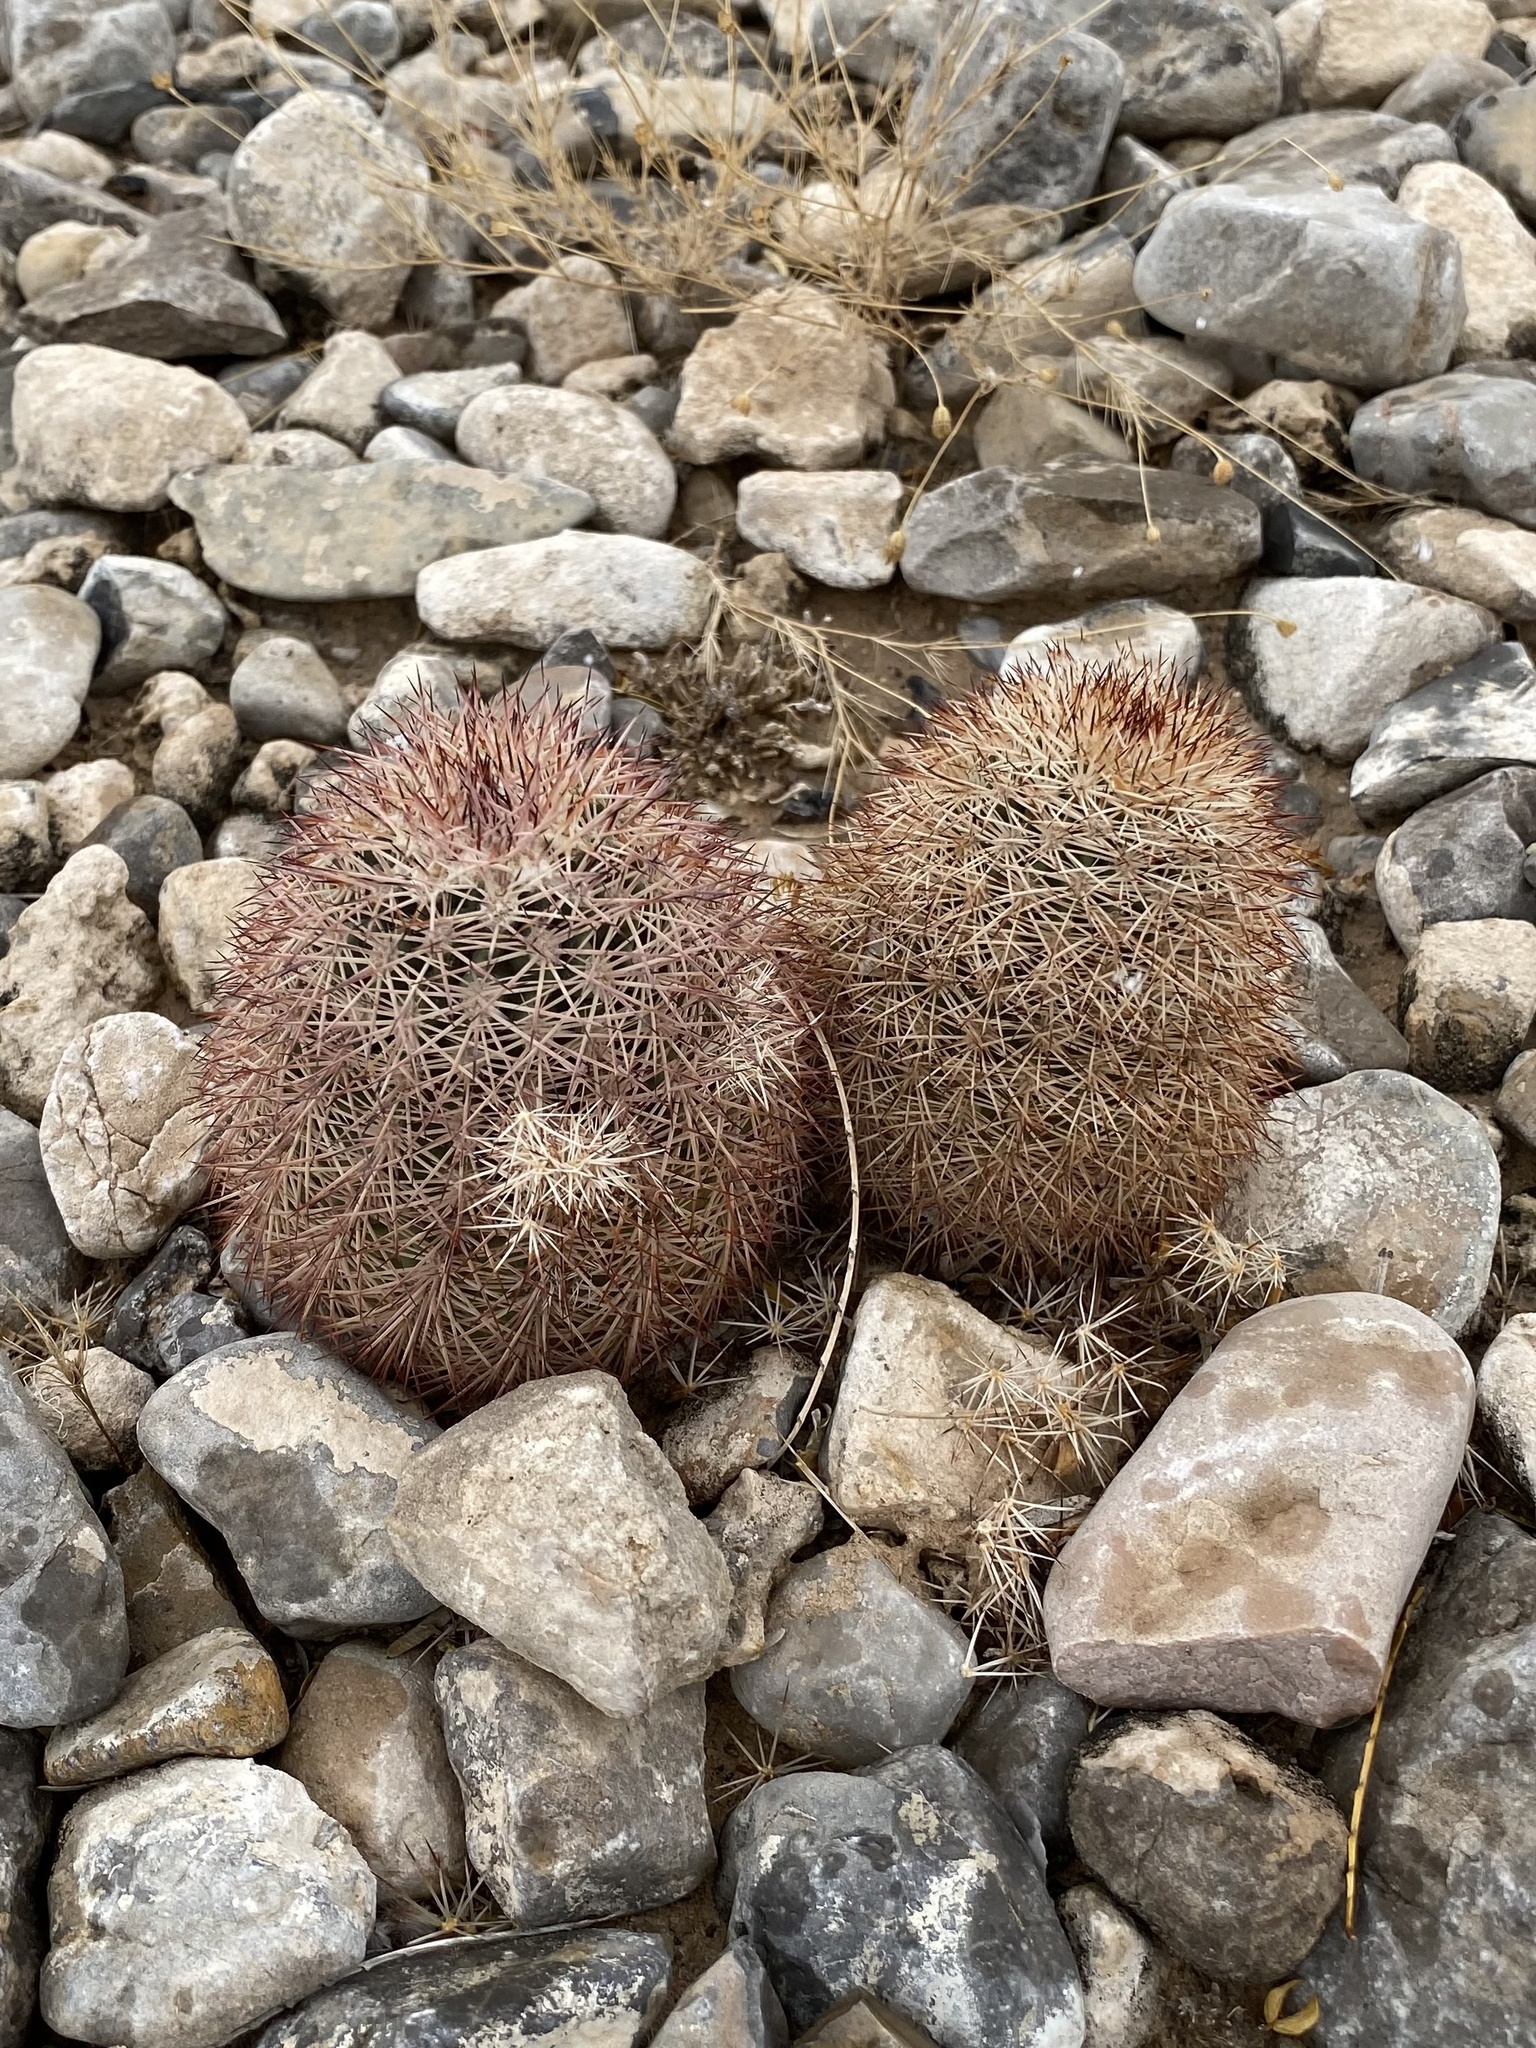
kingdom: Plantae
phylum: Tracheophyta
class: Magnoliopsida
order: Caryophyllales
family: Cactaceae
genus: Echinocereus
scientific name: Echinocereus dasyacanthus
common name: Spiny hedgehog cactus
